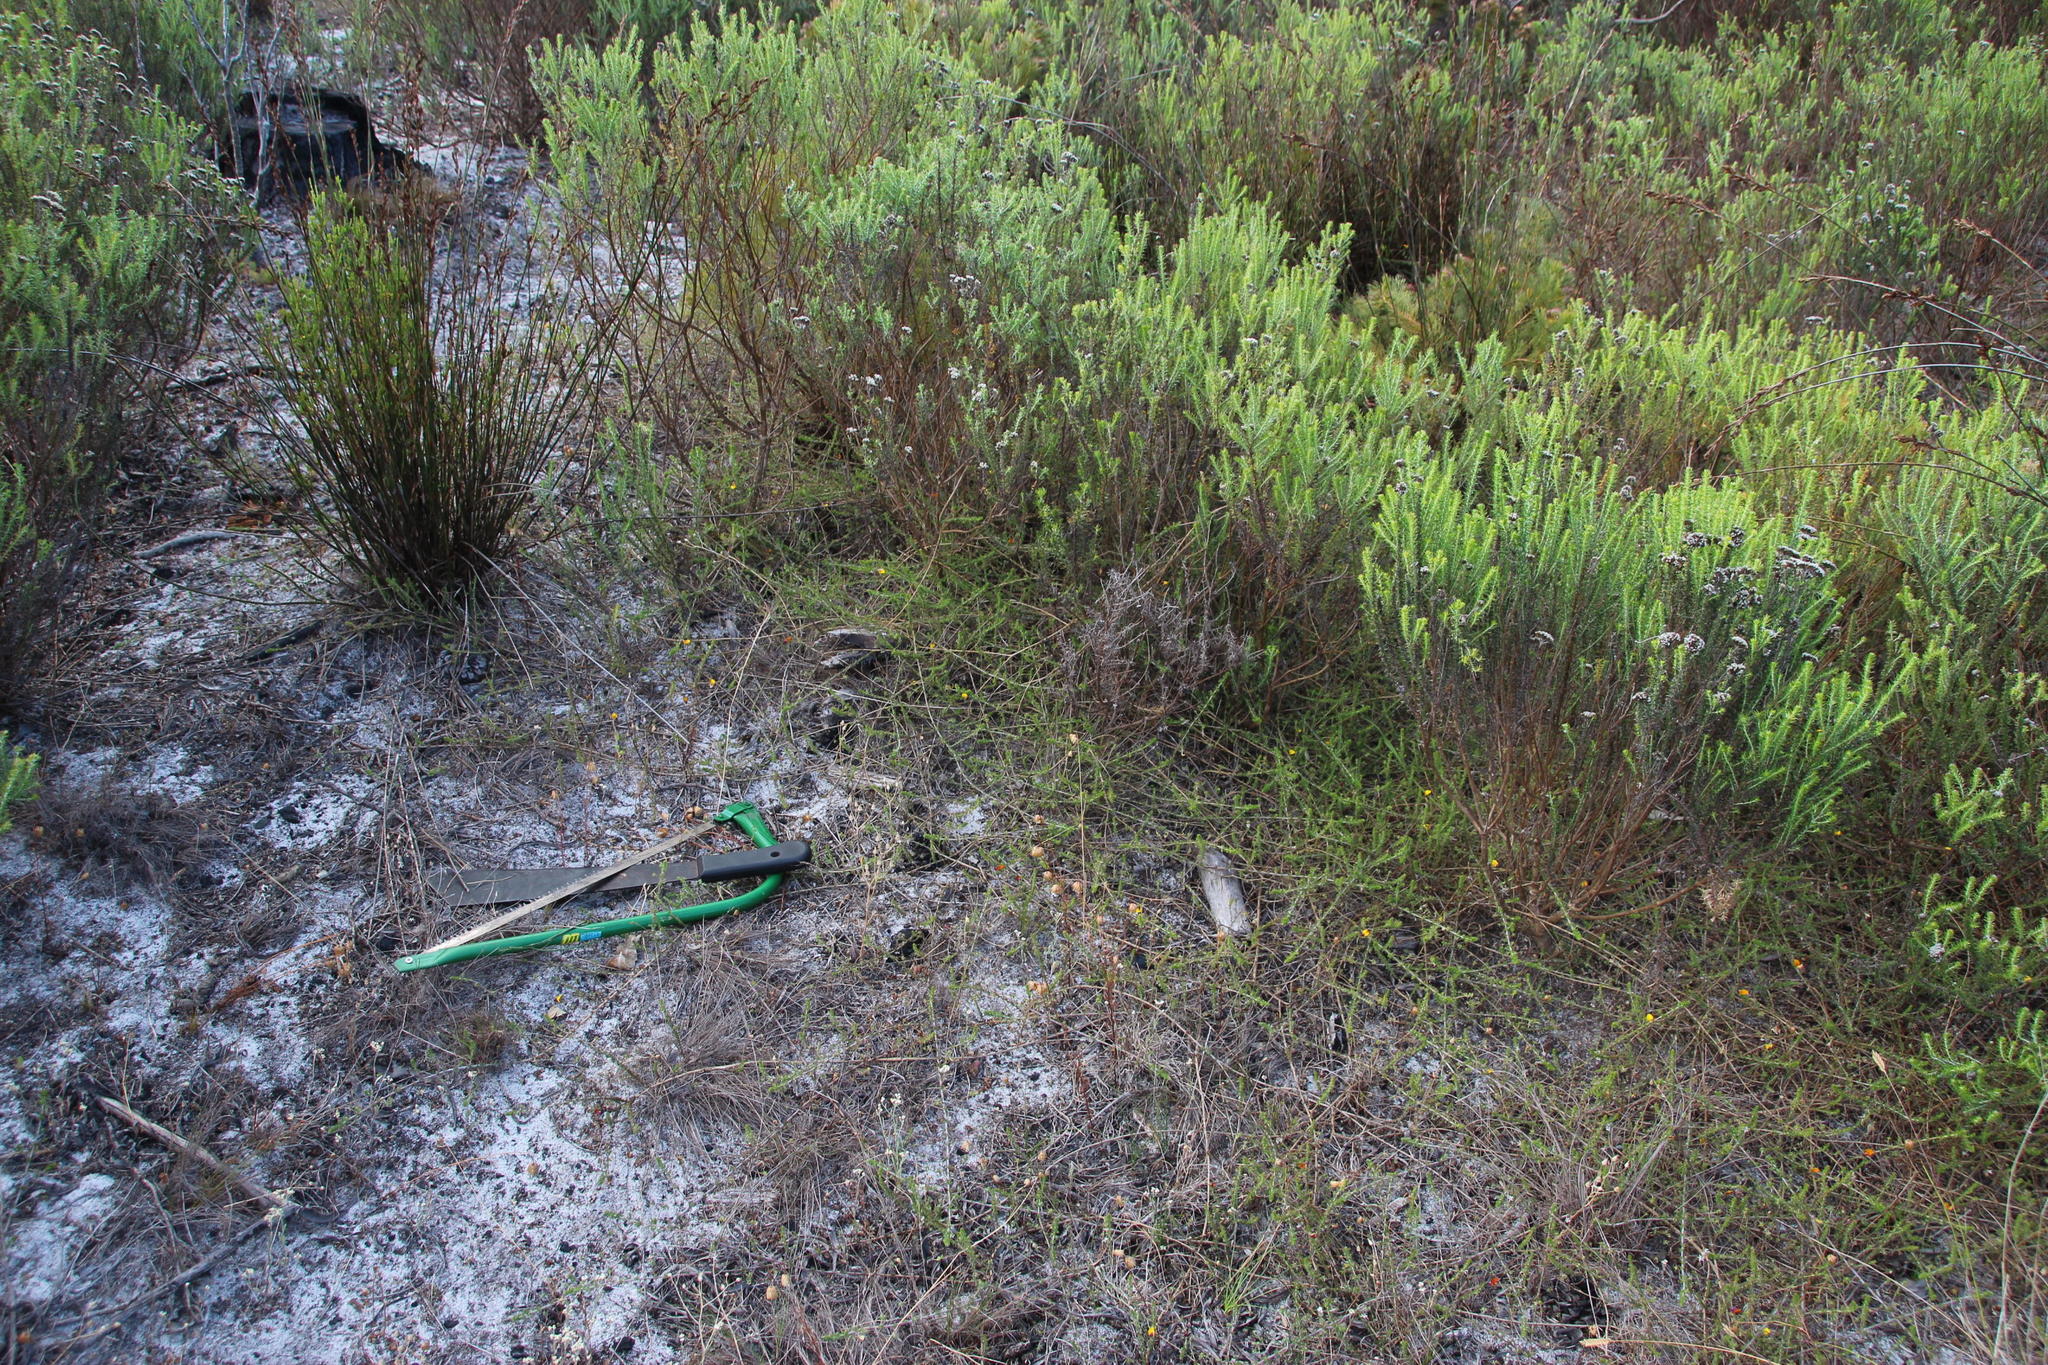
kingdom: Plantae
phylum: Tracheophyta
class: Magnoliopsida
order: Fabales
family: Fabaceae
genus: Aspalathus
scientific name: Aspalathus retroflexa
